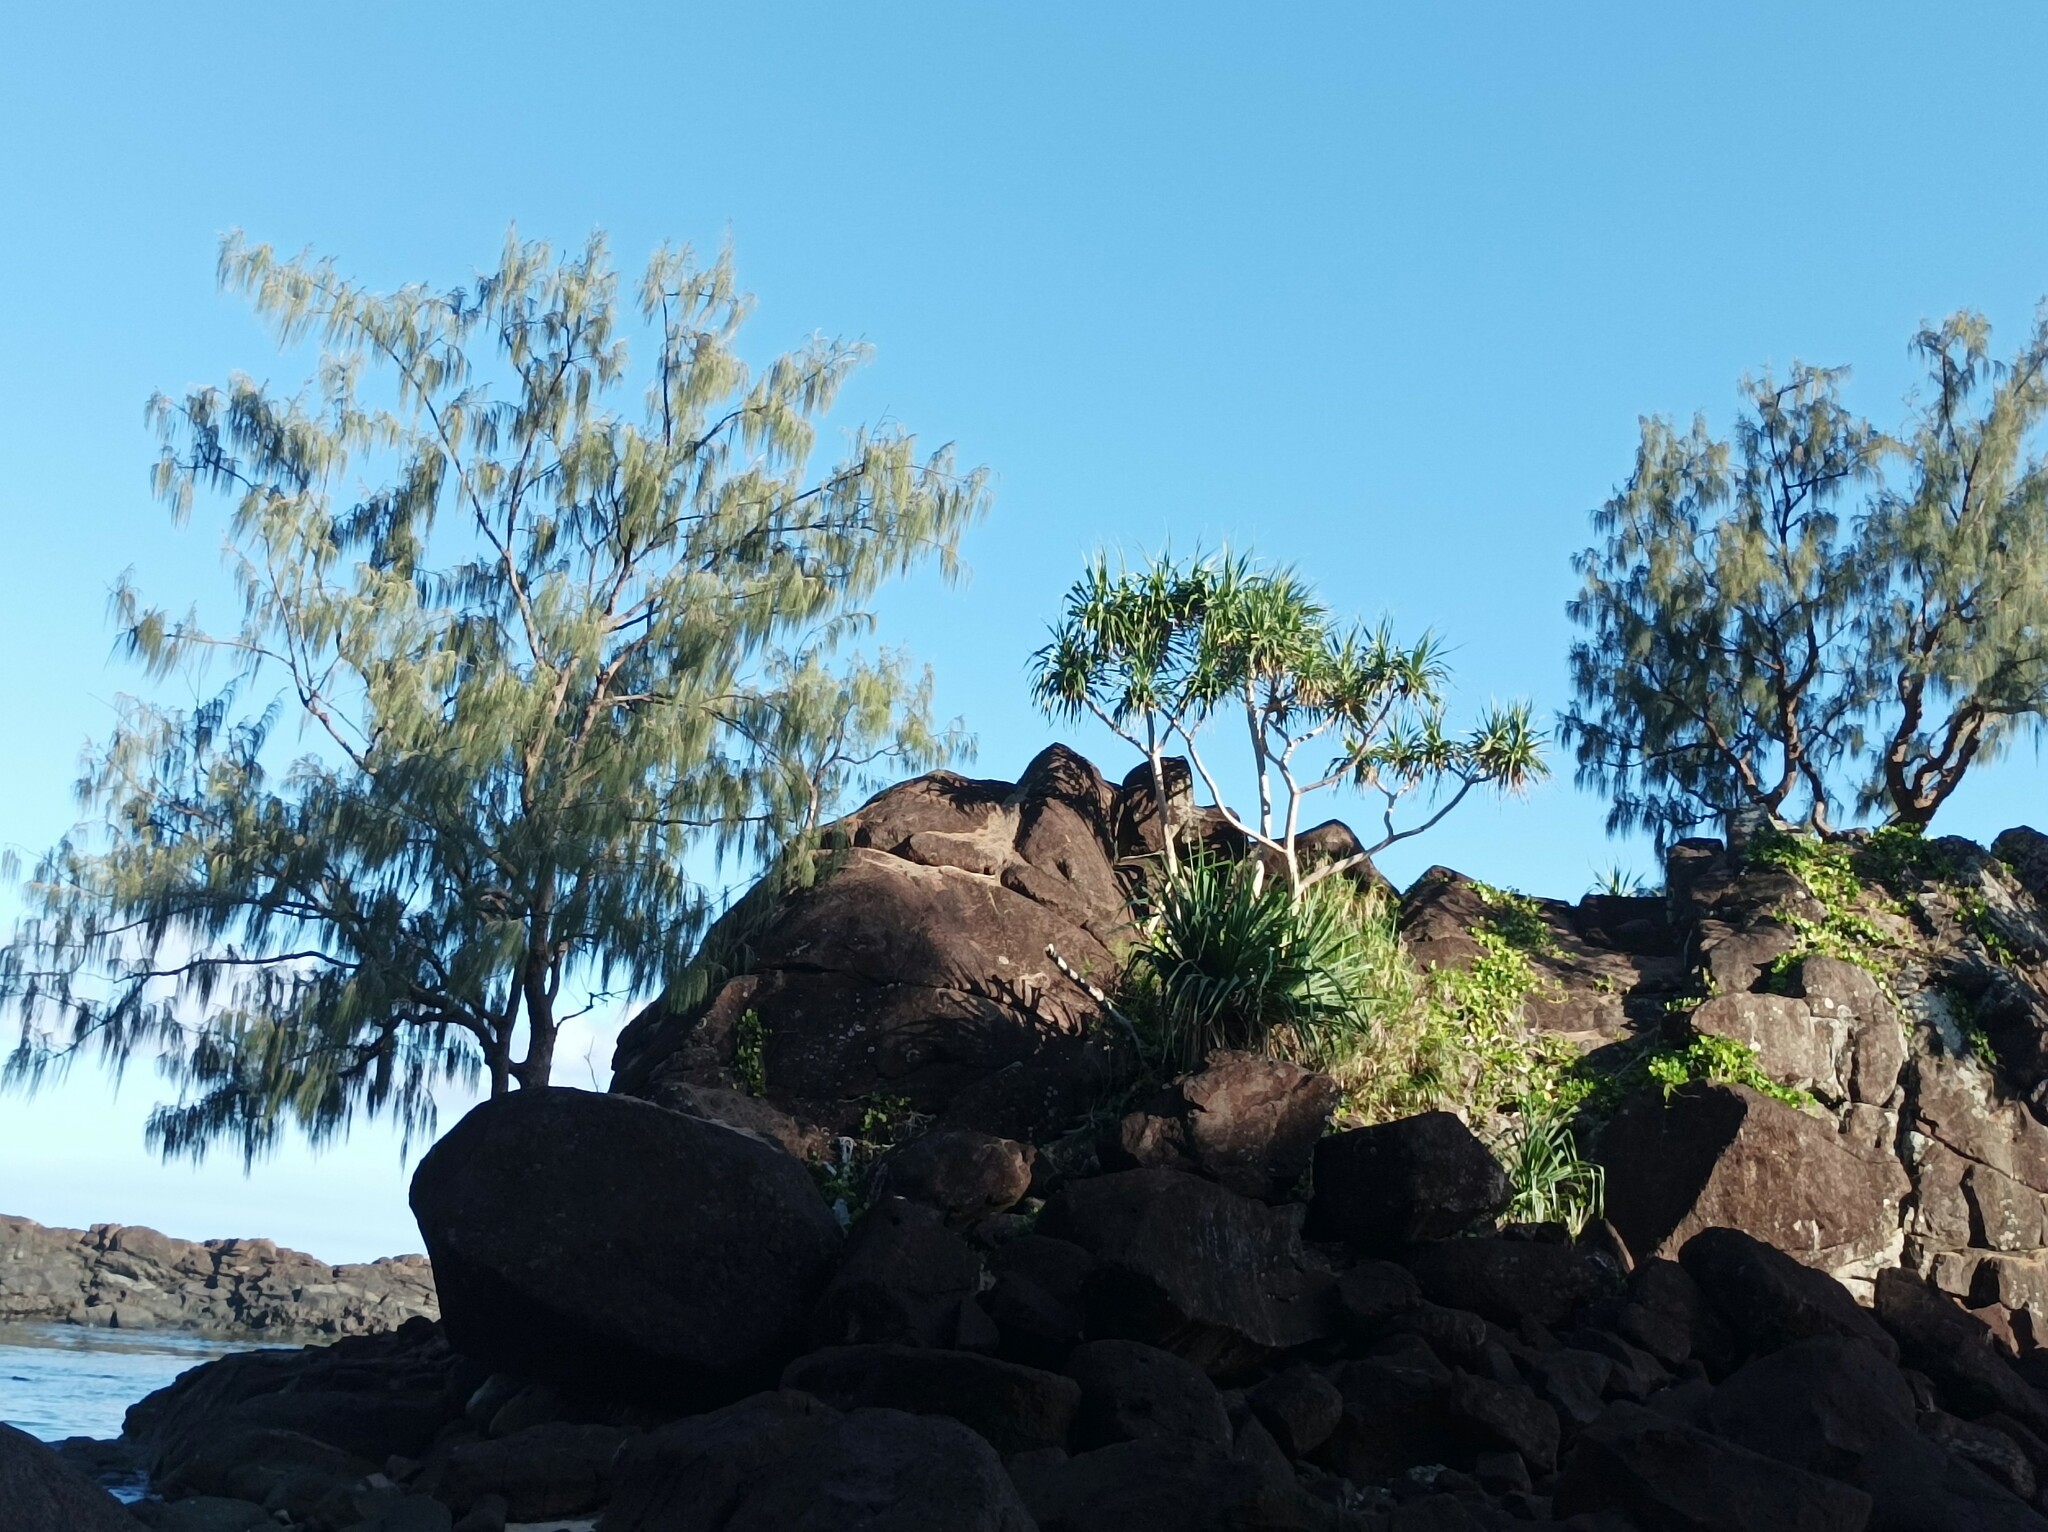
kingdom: Plantae
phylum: Tracheophyta
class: Magnoliopsida
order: Fagales
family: Casuarinaceae
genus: Casuarina
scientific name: Casuarina equisetifolia
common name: Beach sheoak
